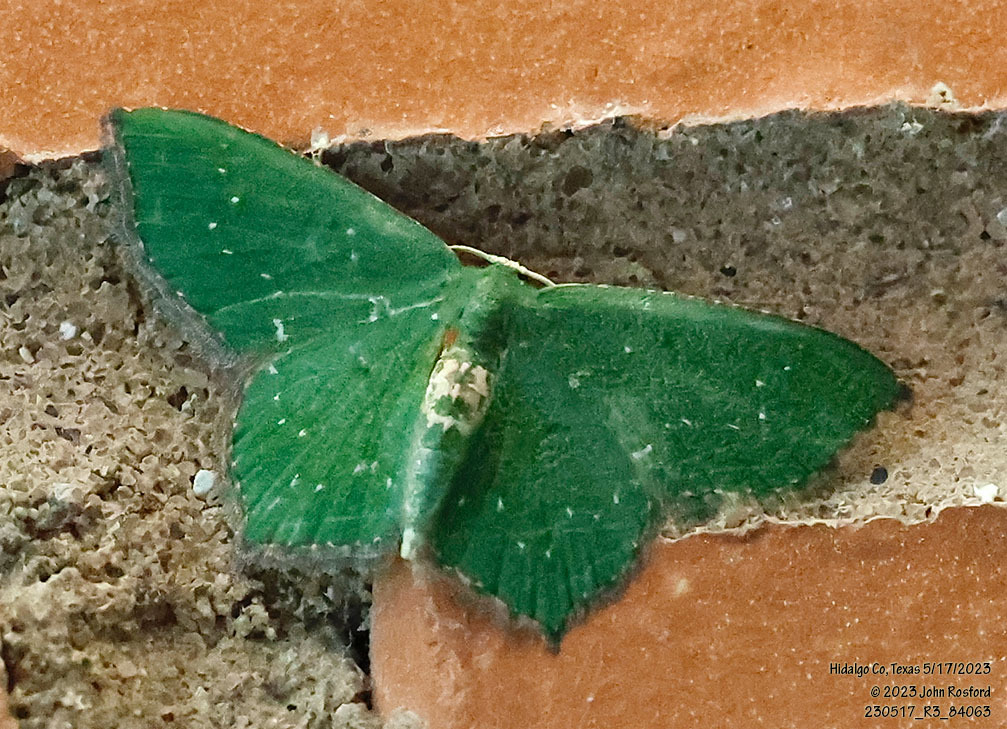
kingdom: Animalia
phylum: Arthropoda
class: Insecta
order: Lepidoptera
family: Geometridae
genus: Chloropteryx
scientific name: Chloropteryx nordicaria
